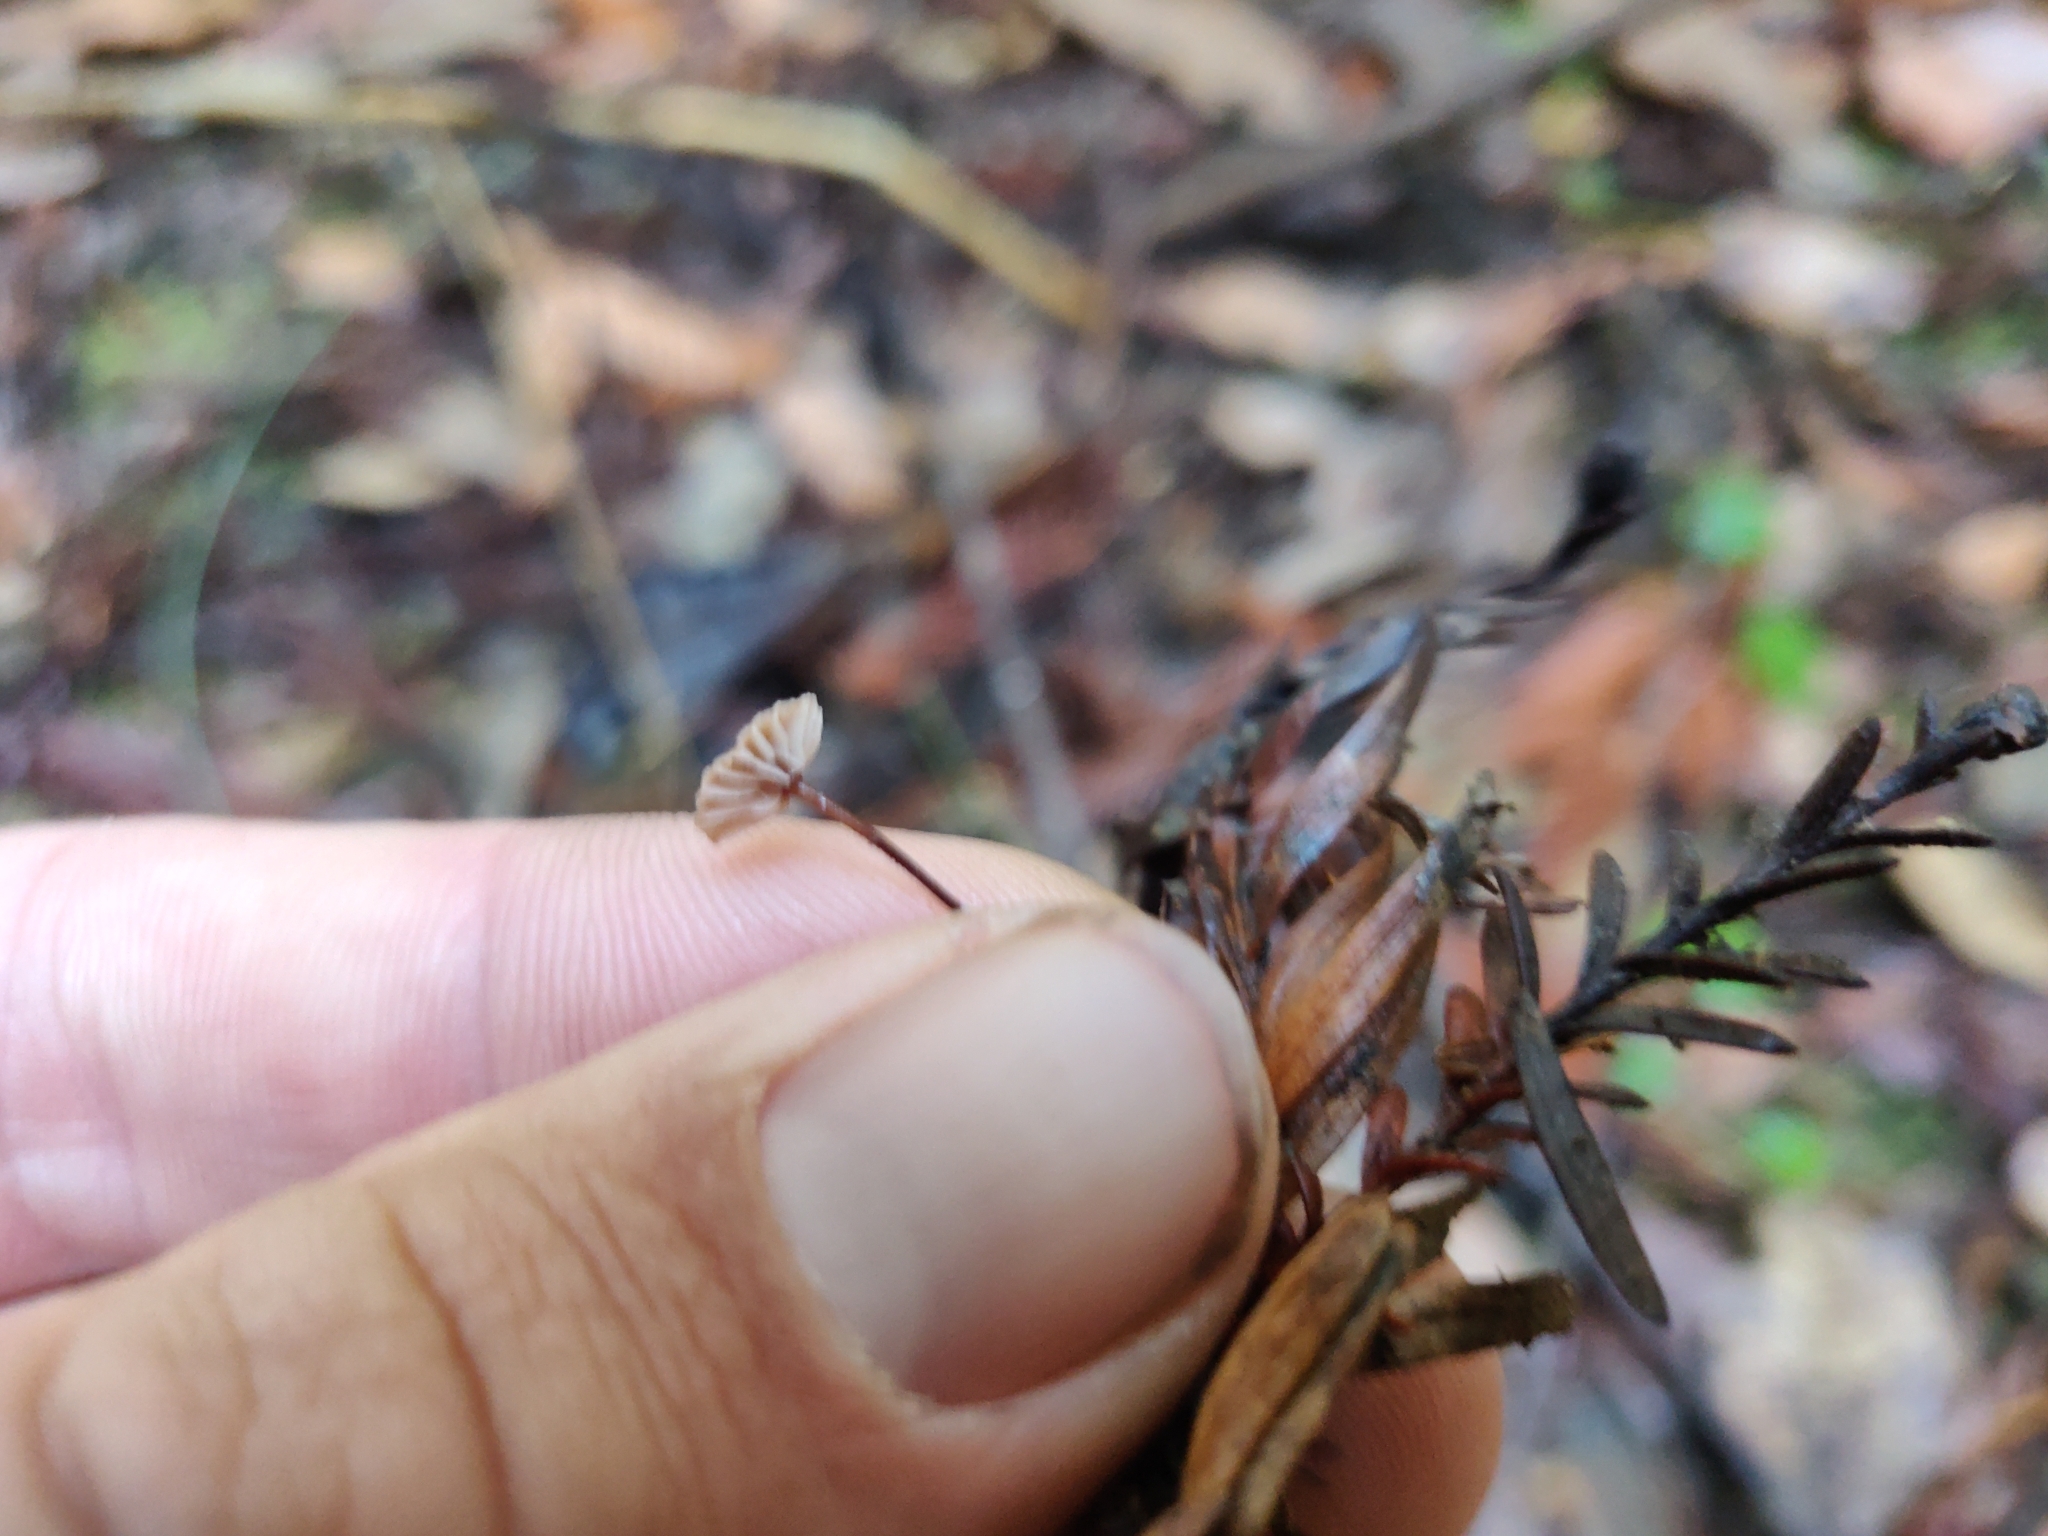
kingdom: Fungi
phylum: Basidiomycota
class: Agaricomycetes
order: Agaricales
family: Omphalotaceae
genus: Gymnopus
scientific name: Gymnopus androsaceus
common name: Horse-hair fungus
